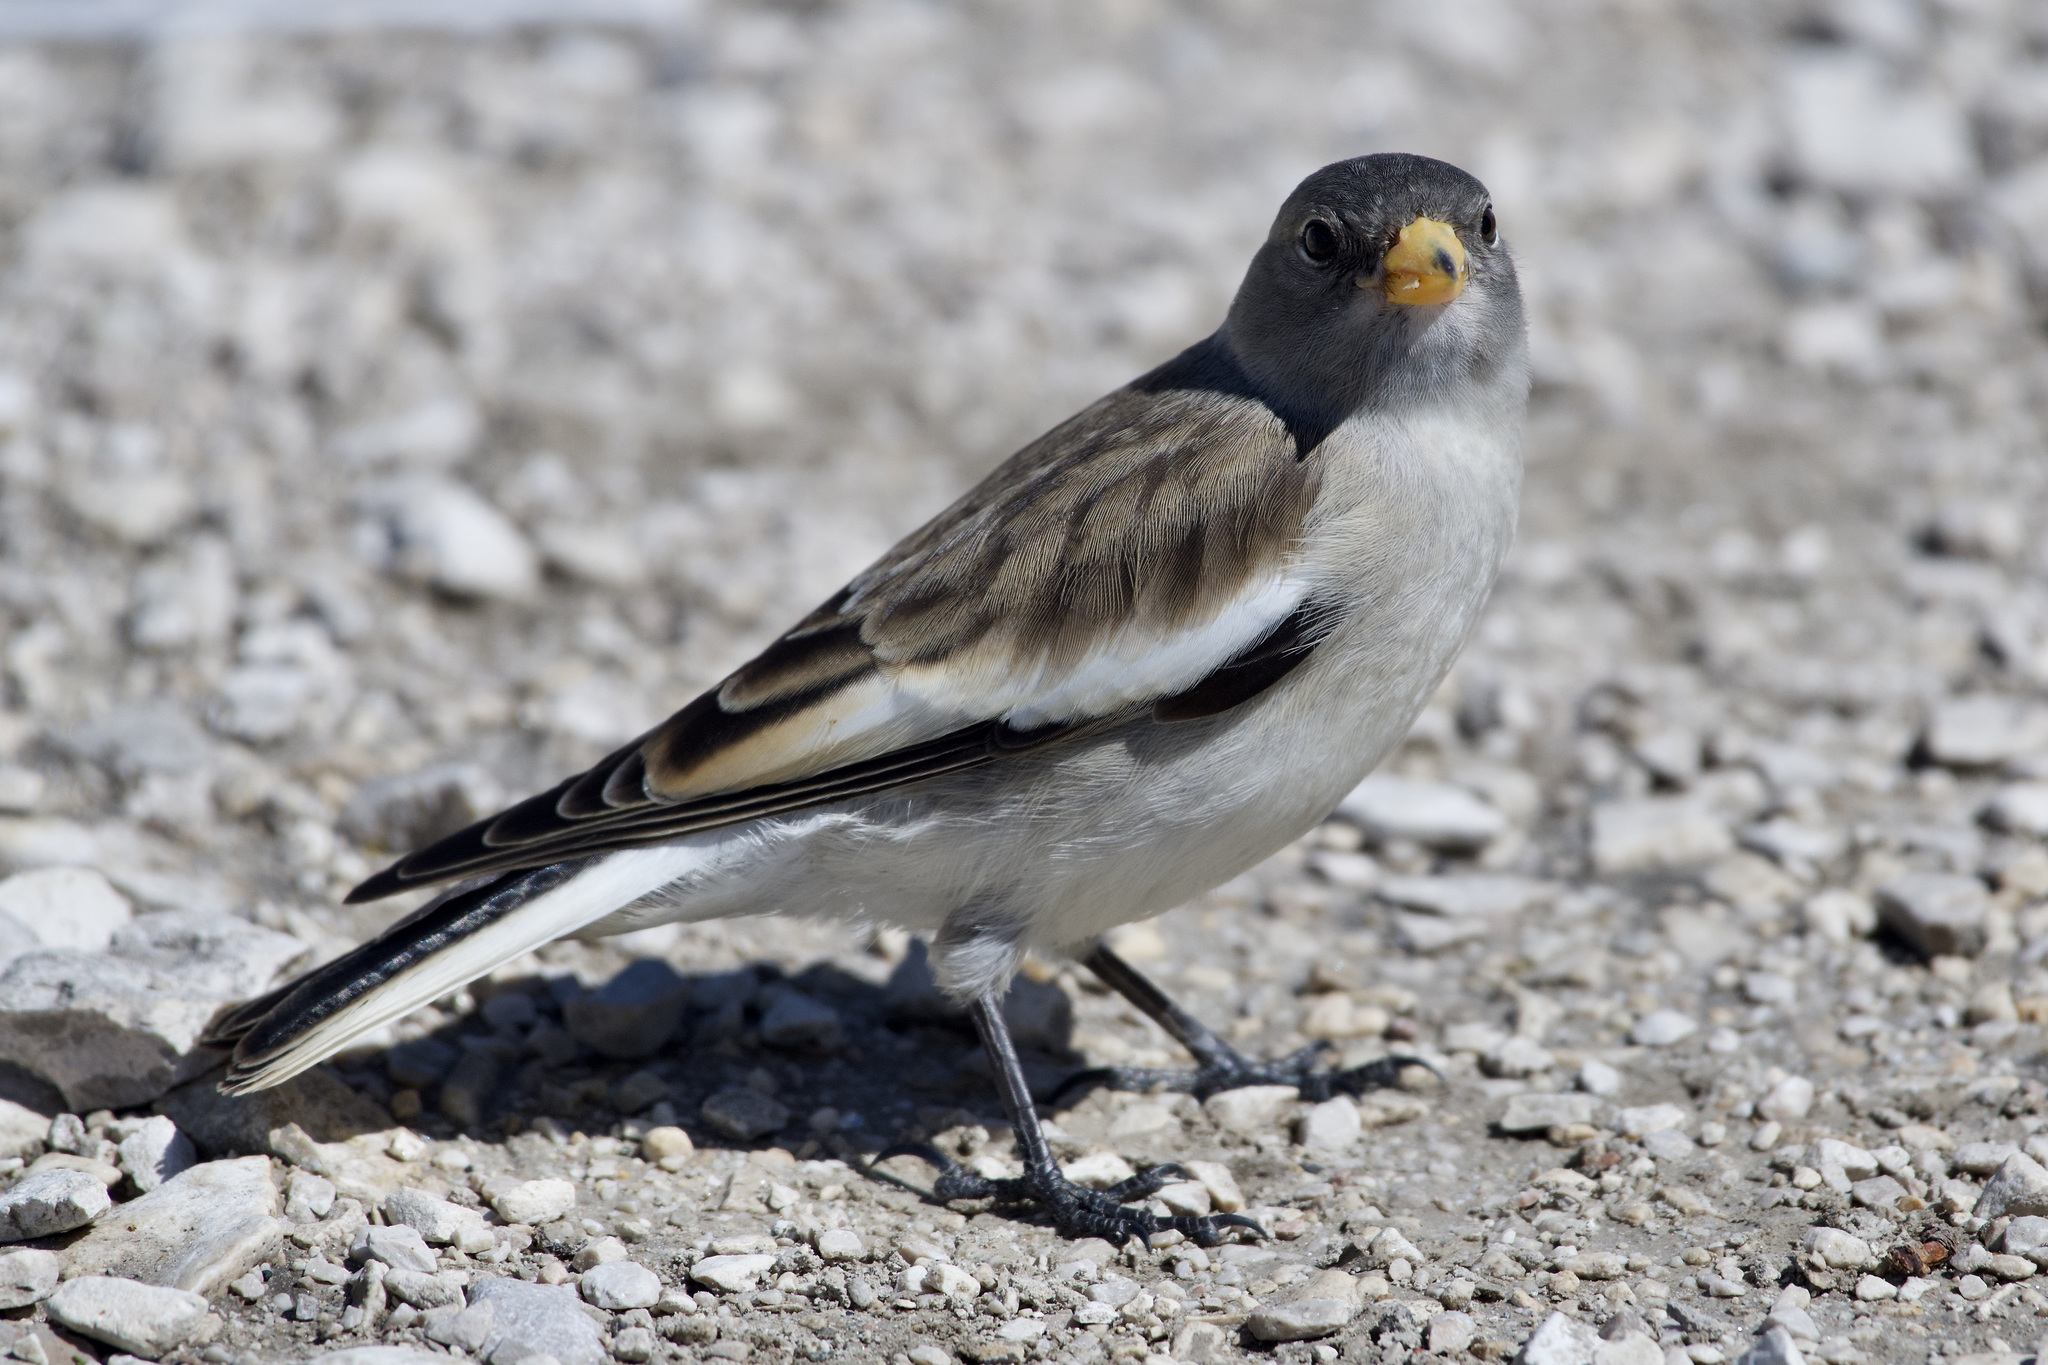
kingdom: Animalia
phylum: Chordata
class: Aves
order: Passeriformes
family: Passeridae
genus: Montifringilla
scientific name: Montifringilla nivalis
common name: White-winged snowfinch
